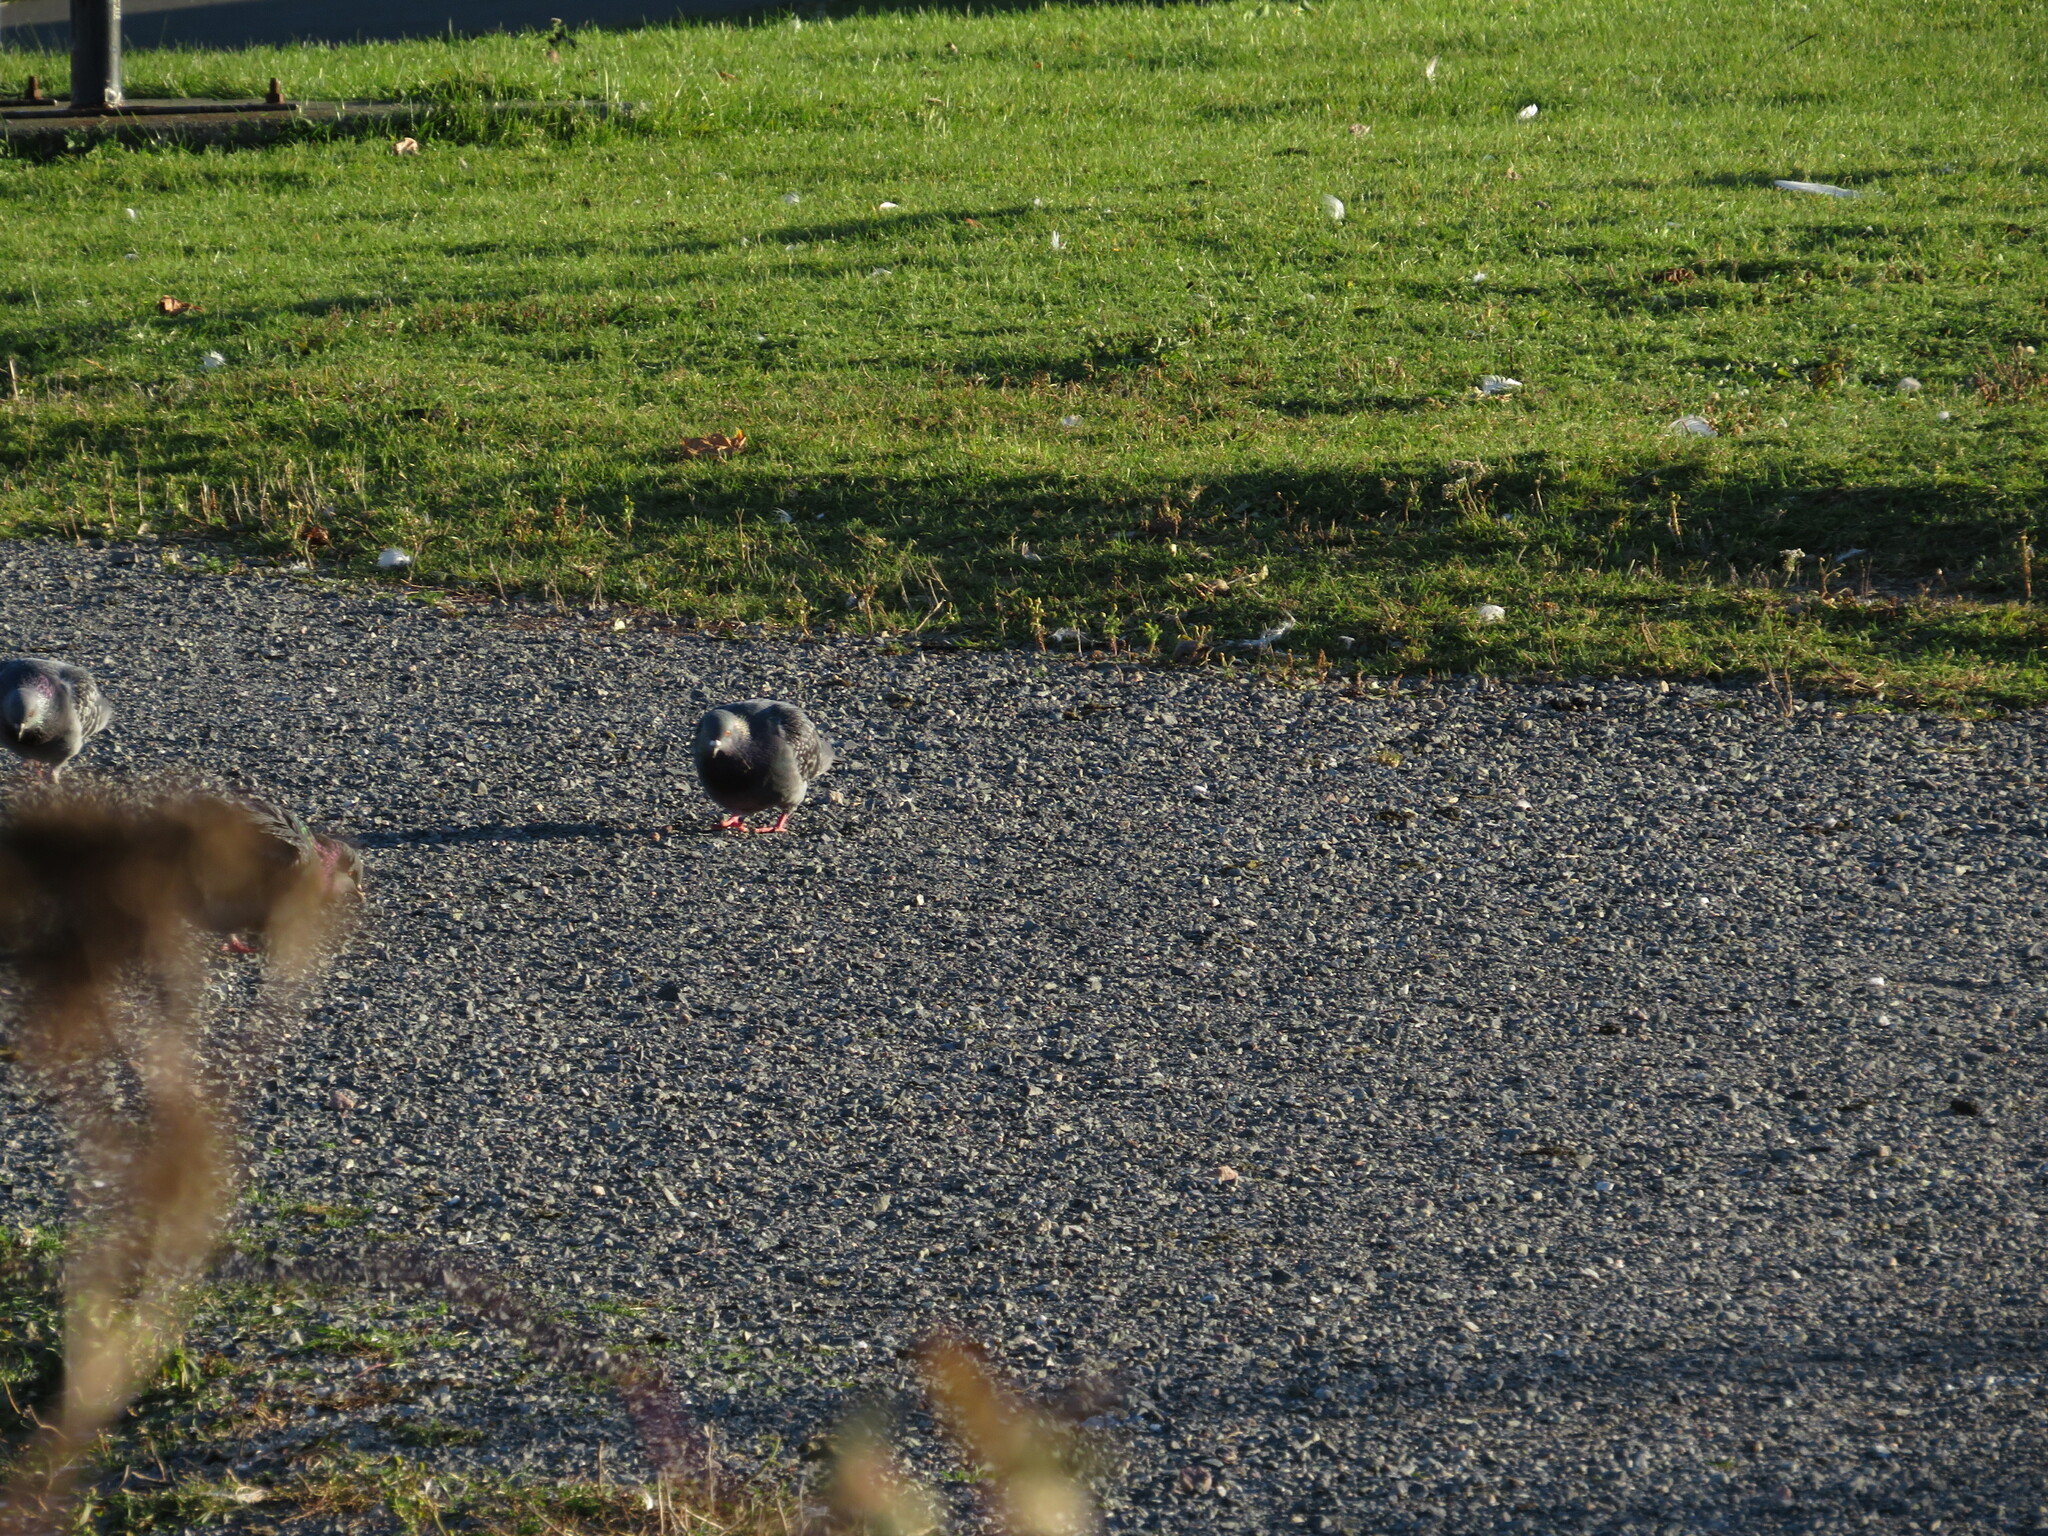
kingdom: Animalia
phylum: Chordata
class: Aves
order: Columbiformes
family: Columbidae
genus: Columba
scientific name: Columba livia
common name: Rock pigeon
